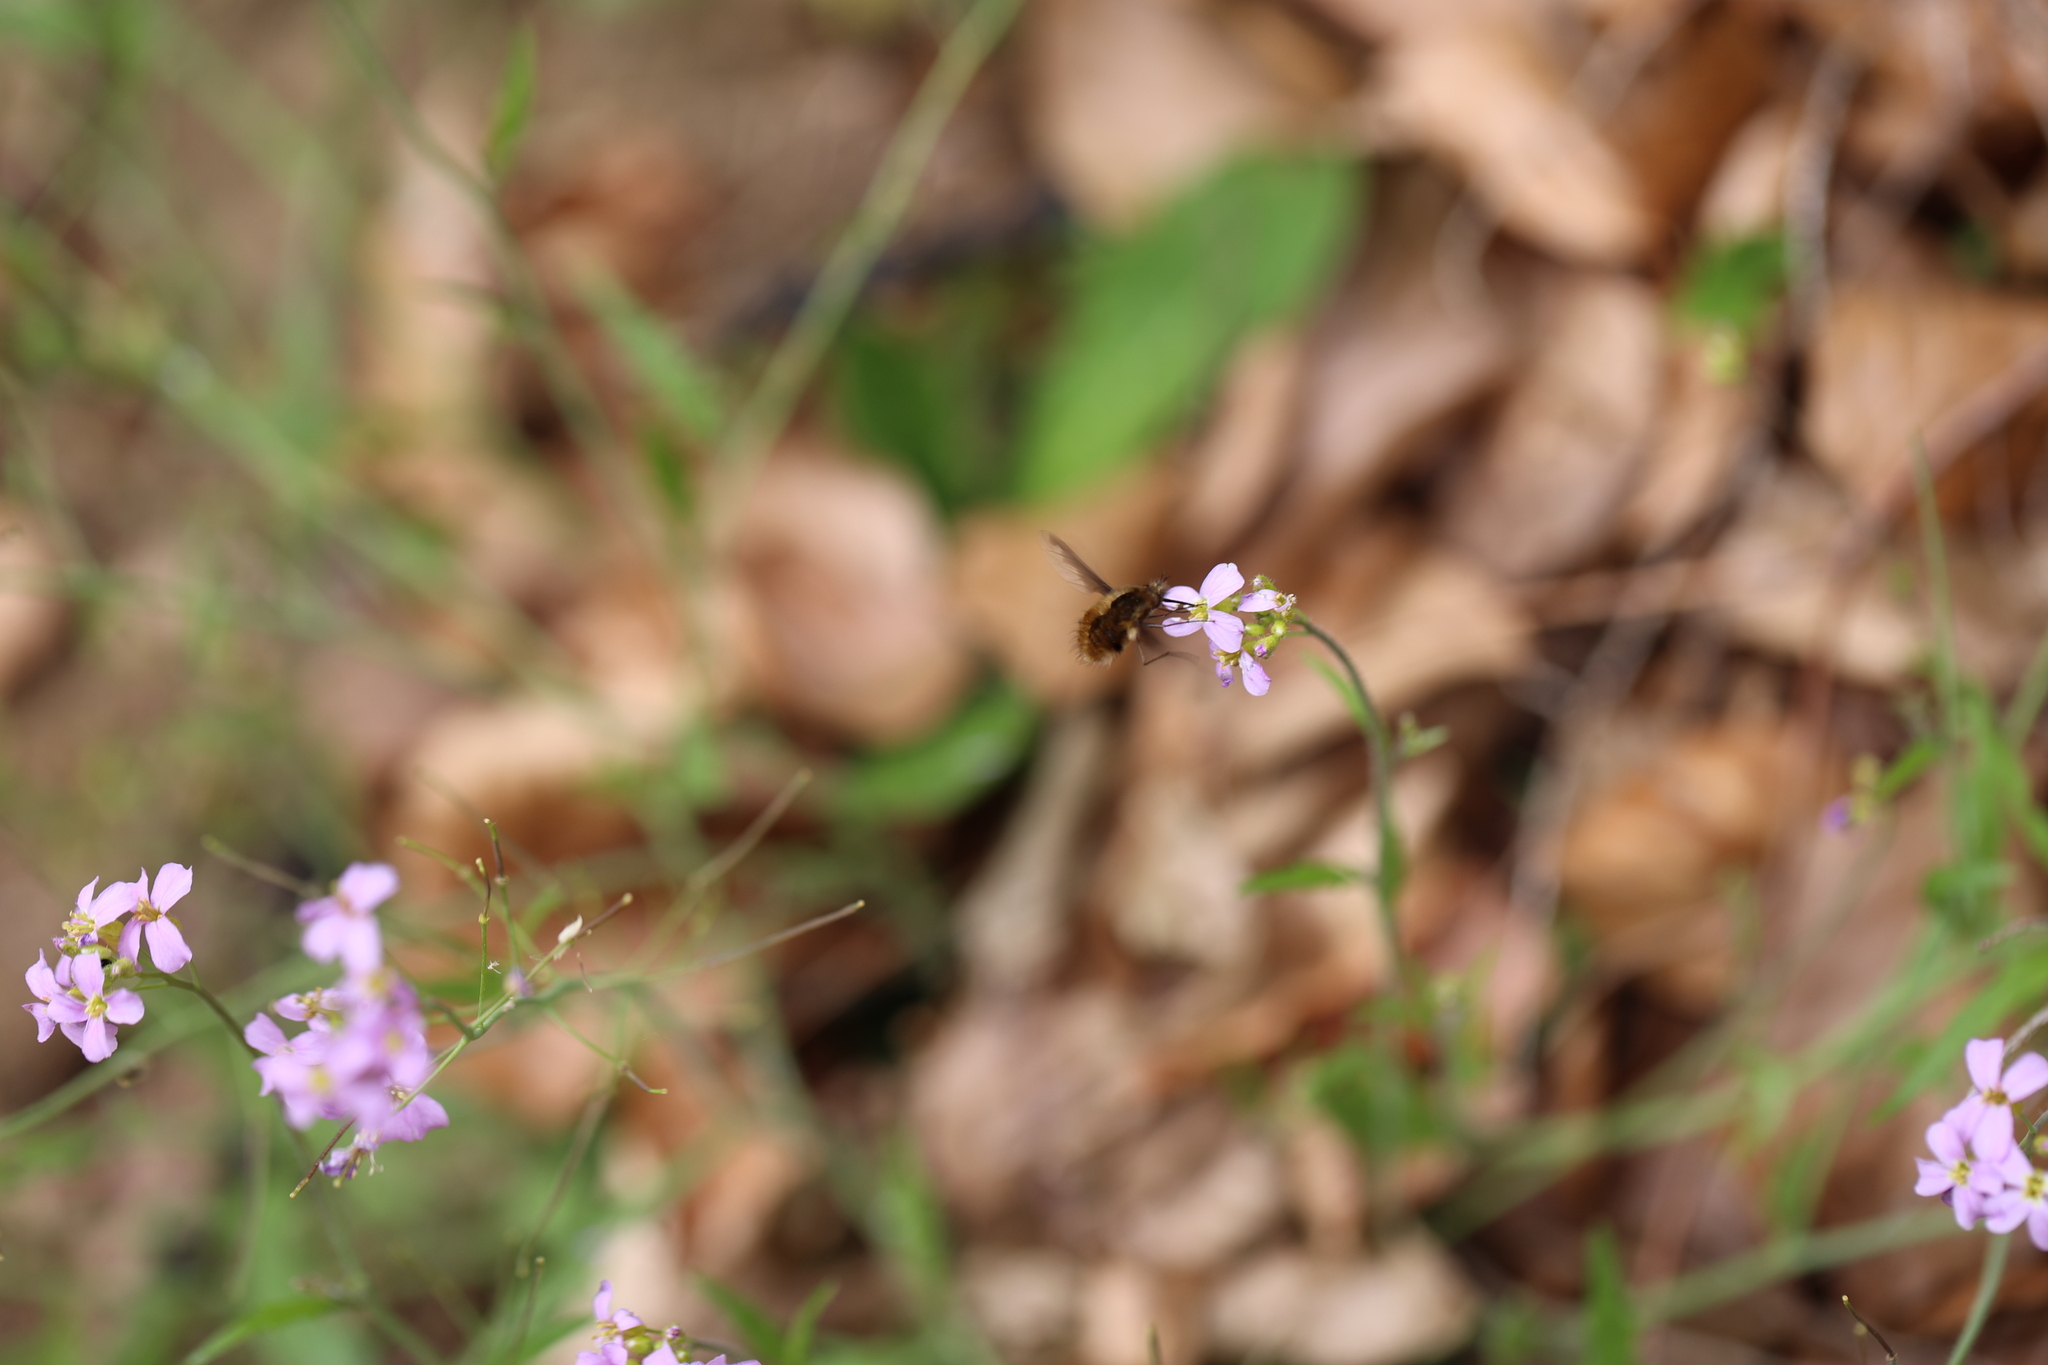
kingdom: Animalia
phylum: Arthropoda
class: Insecta
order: Diptera
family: Bombyliidae
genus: Bombylius
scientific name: Bombylius major
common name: Bee fly
